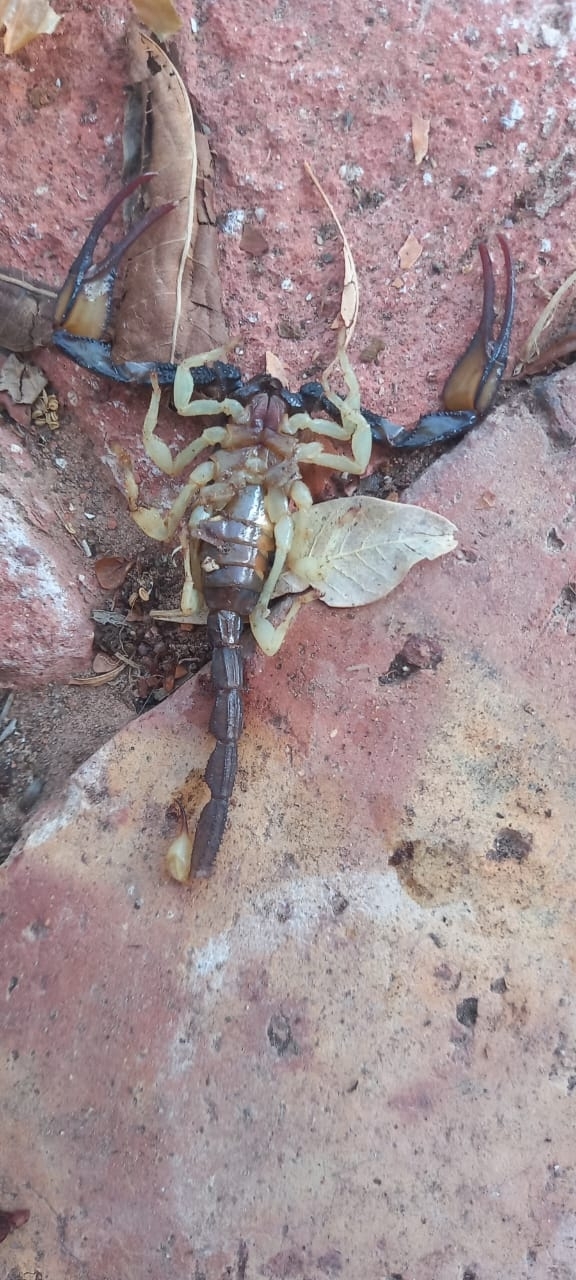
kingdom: Animalia
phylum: Arthropoda
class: Arachnida
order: Scorpiones
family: Scorpionidae
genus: Opistophthalmus
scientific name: Opistophthalmus pallipes
